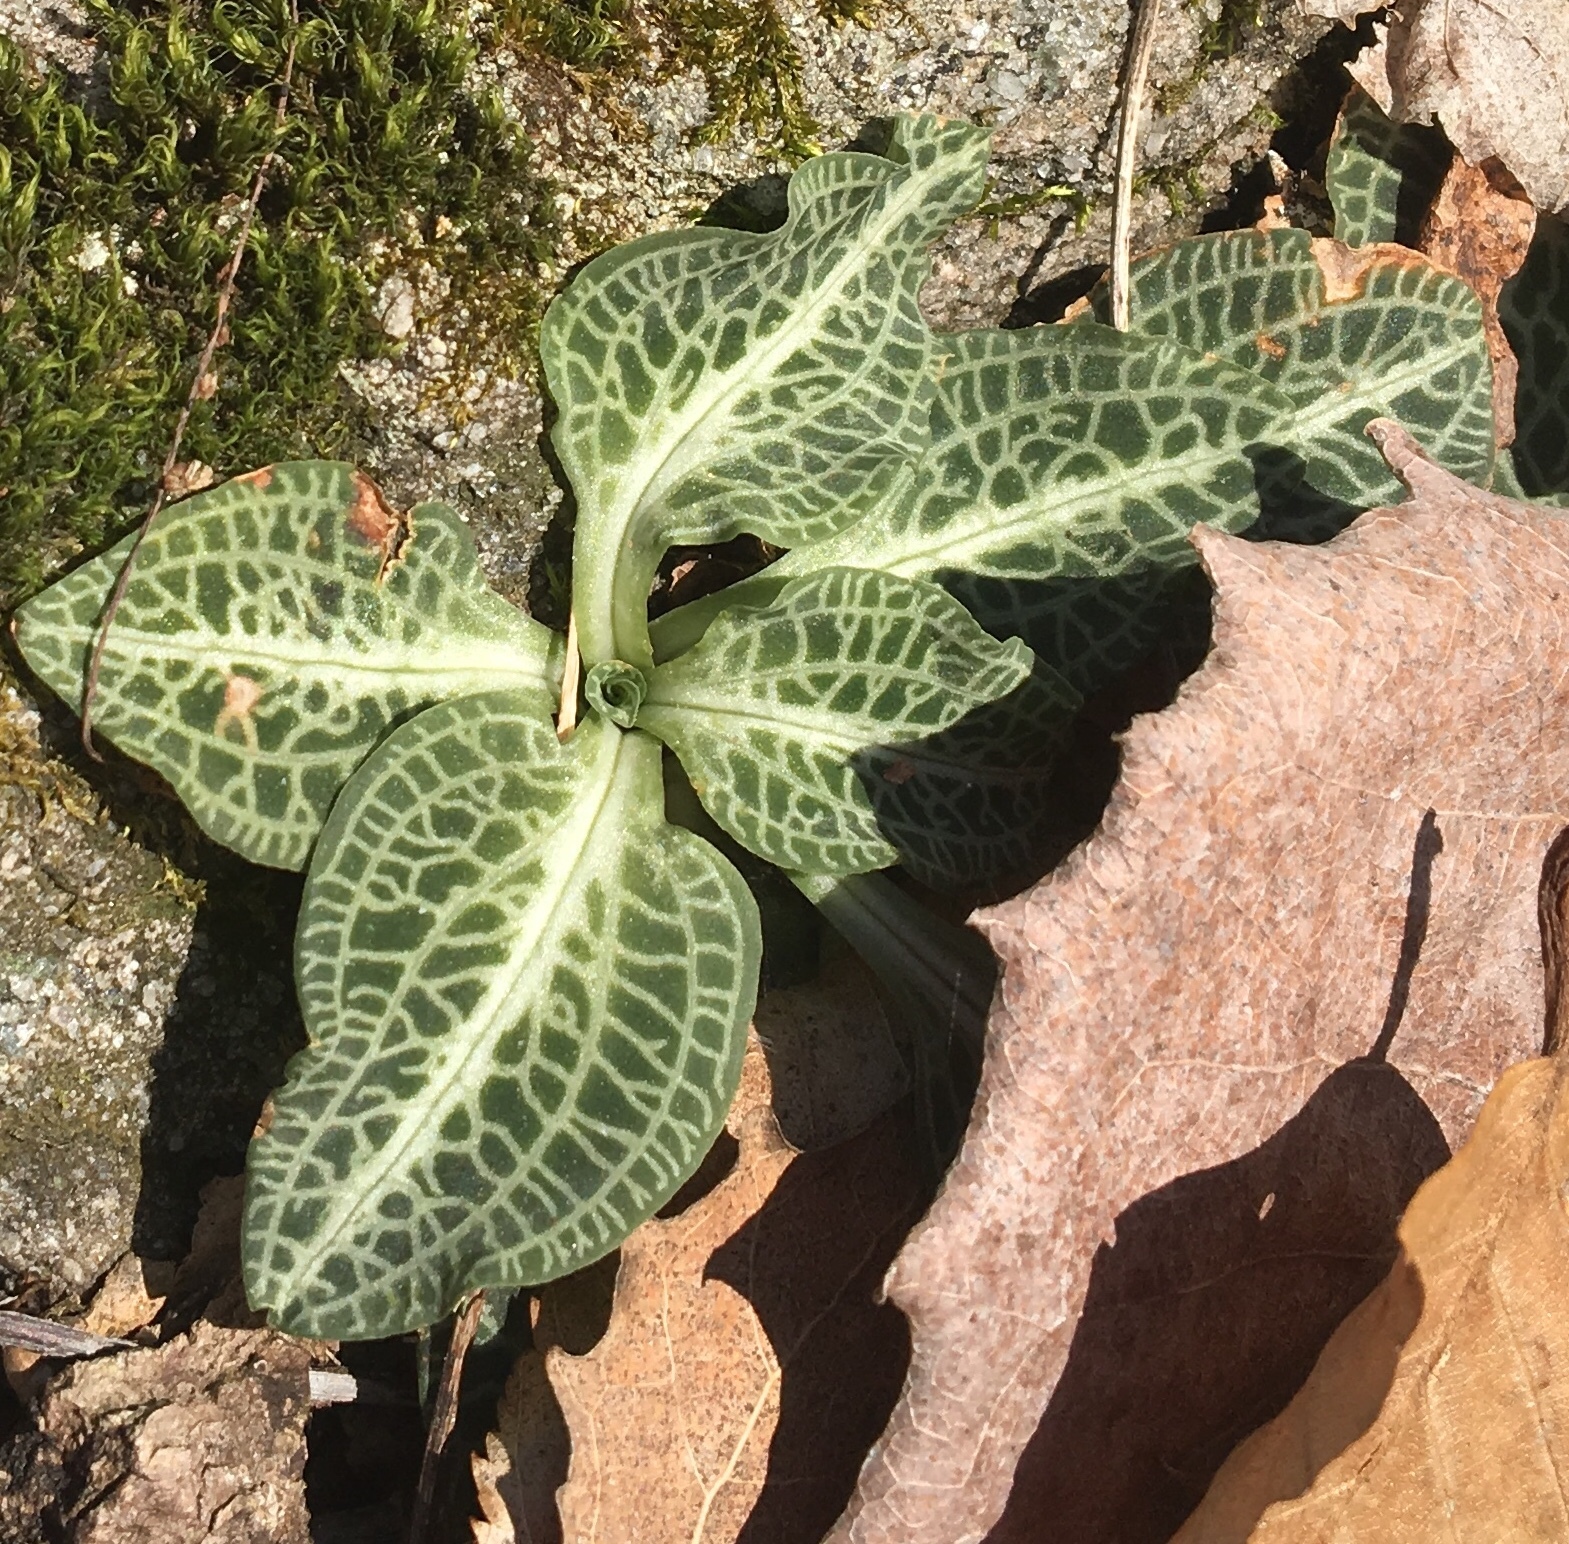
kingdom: Plantae
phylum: Tracheophyta
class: Liliopsida
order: Asparagales
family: Orchidaceae
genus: Goodyera
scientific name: Goodyera pubescens
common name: Downy rattlesnake-plantain
